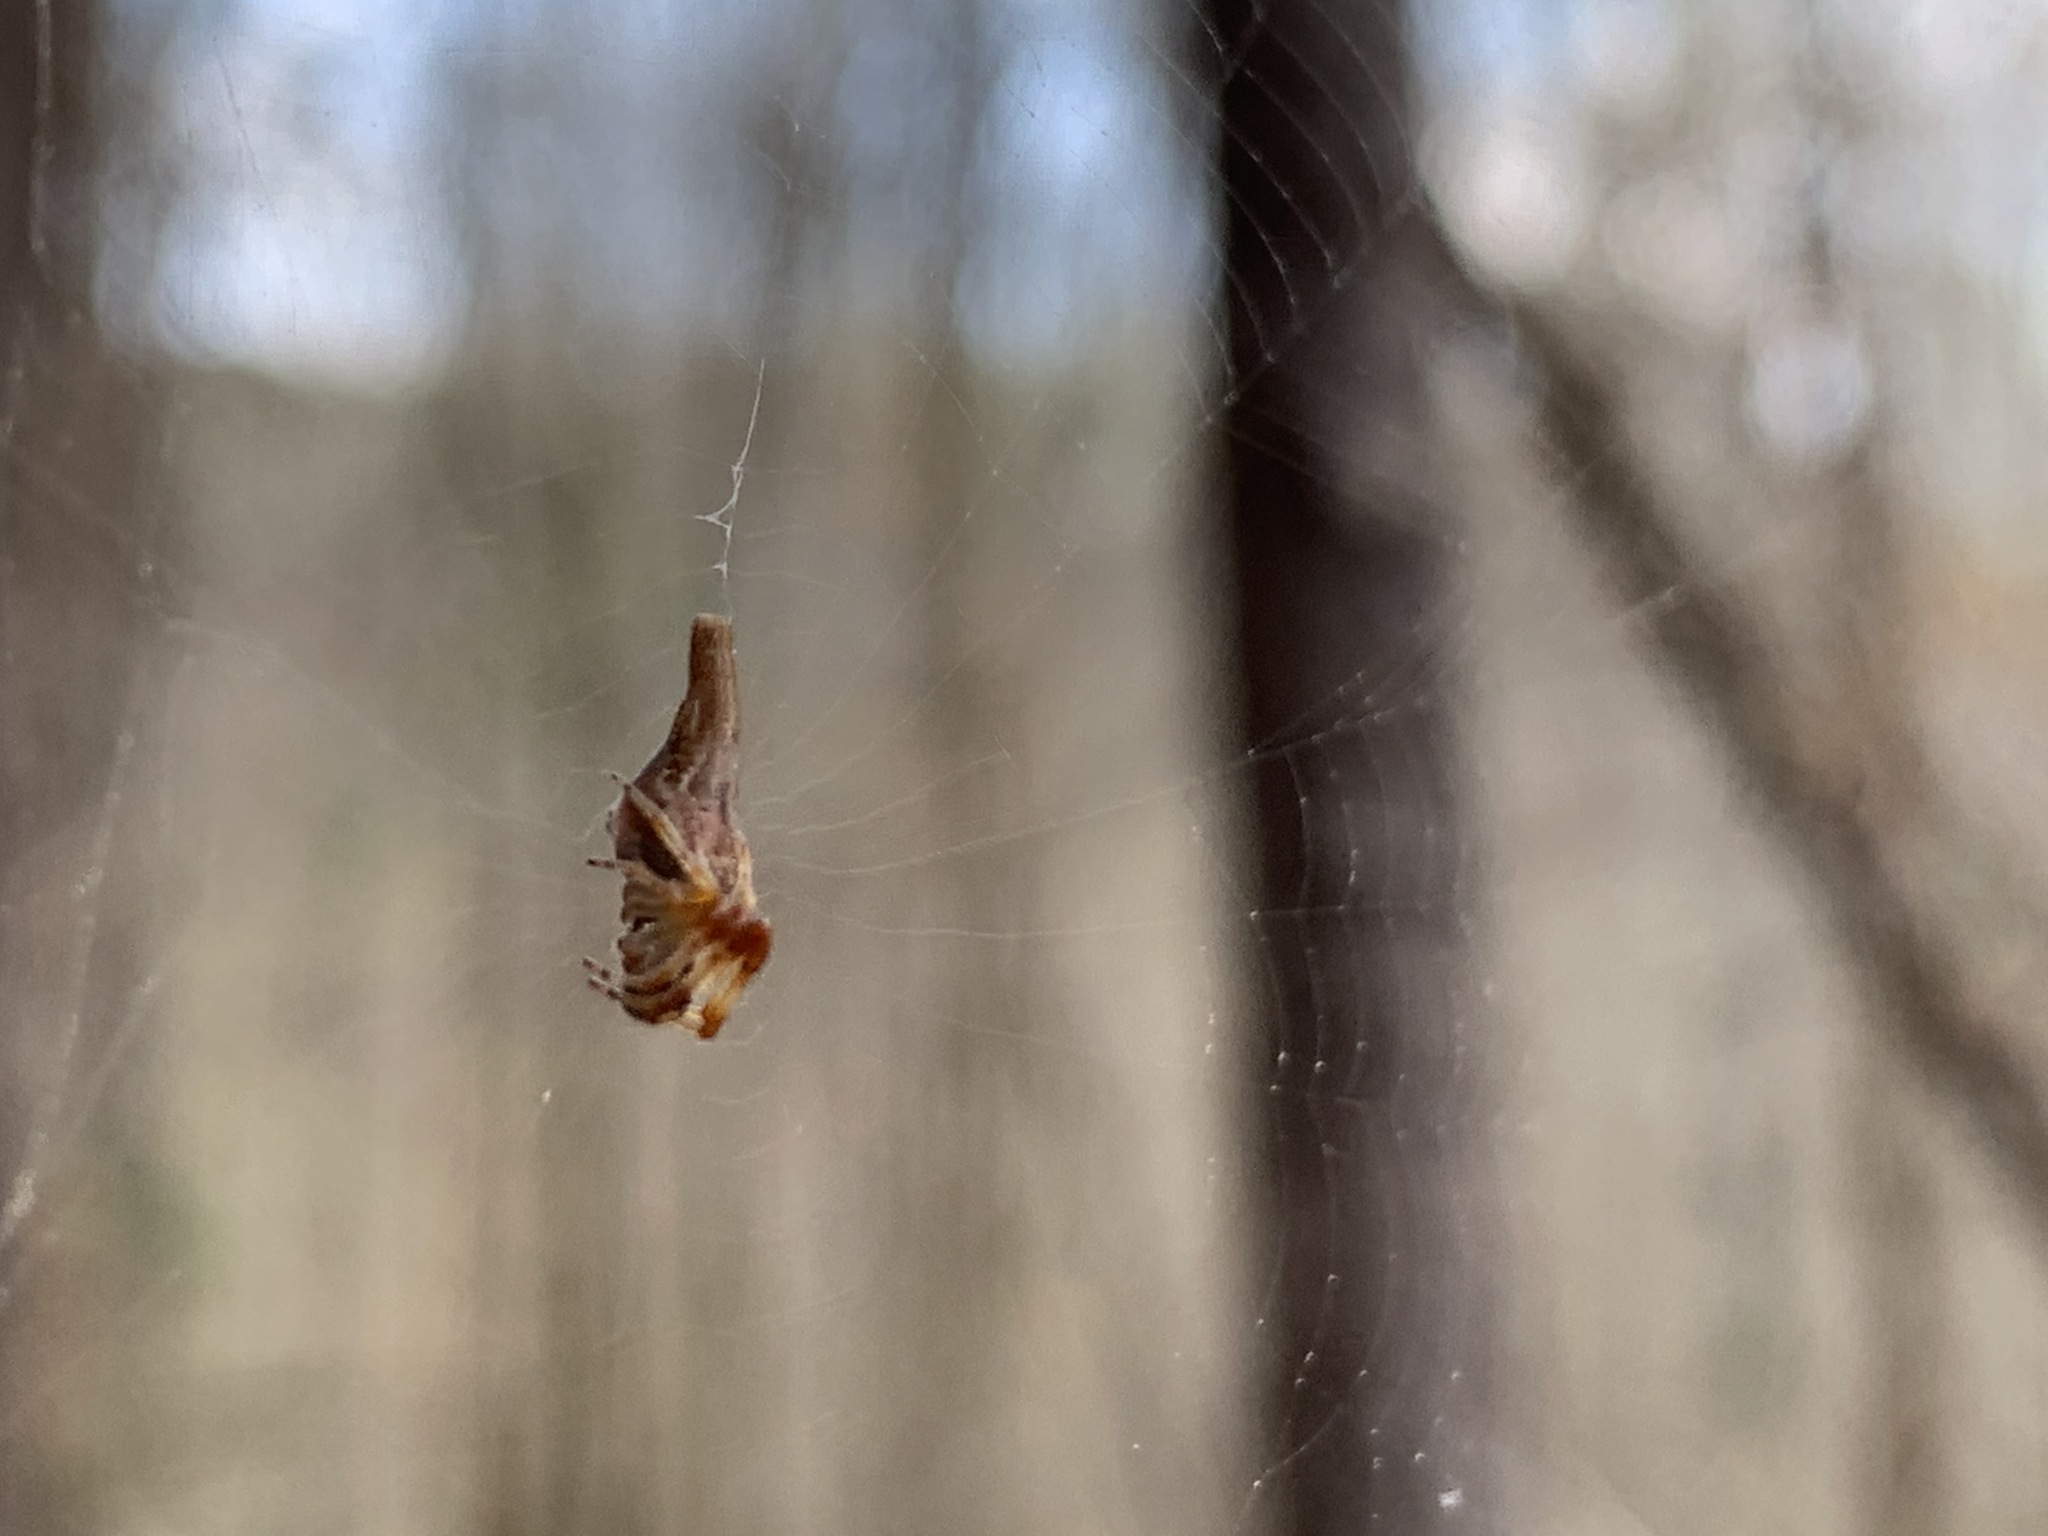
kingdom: Animalia
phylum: Arthropoda
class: Arachnida
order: Araneae
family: Araneidae
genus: Cyclosa
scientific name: Cyclosa conica
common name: Conical trashline orbweaver
